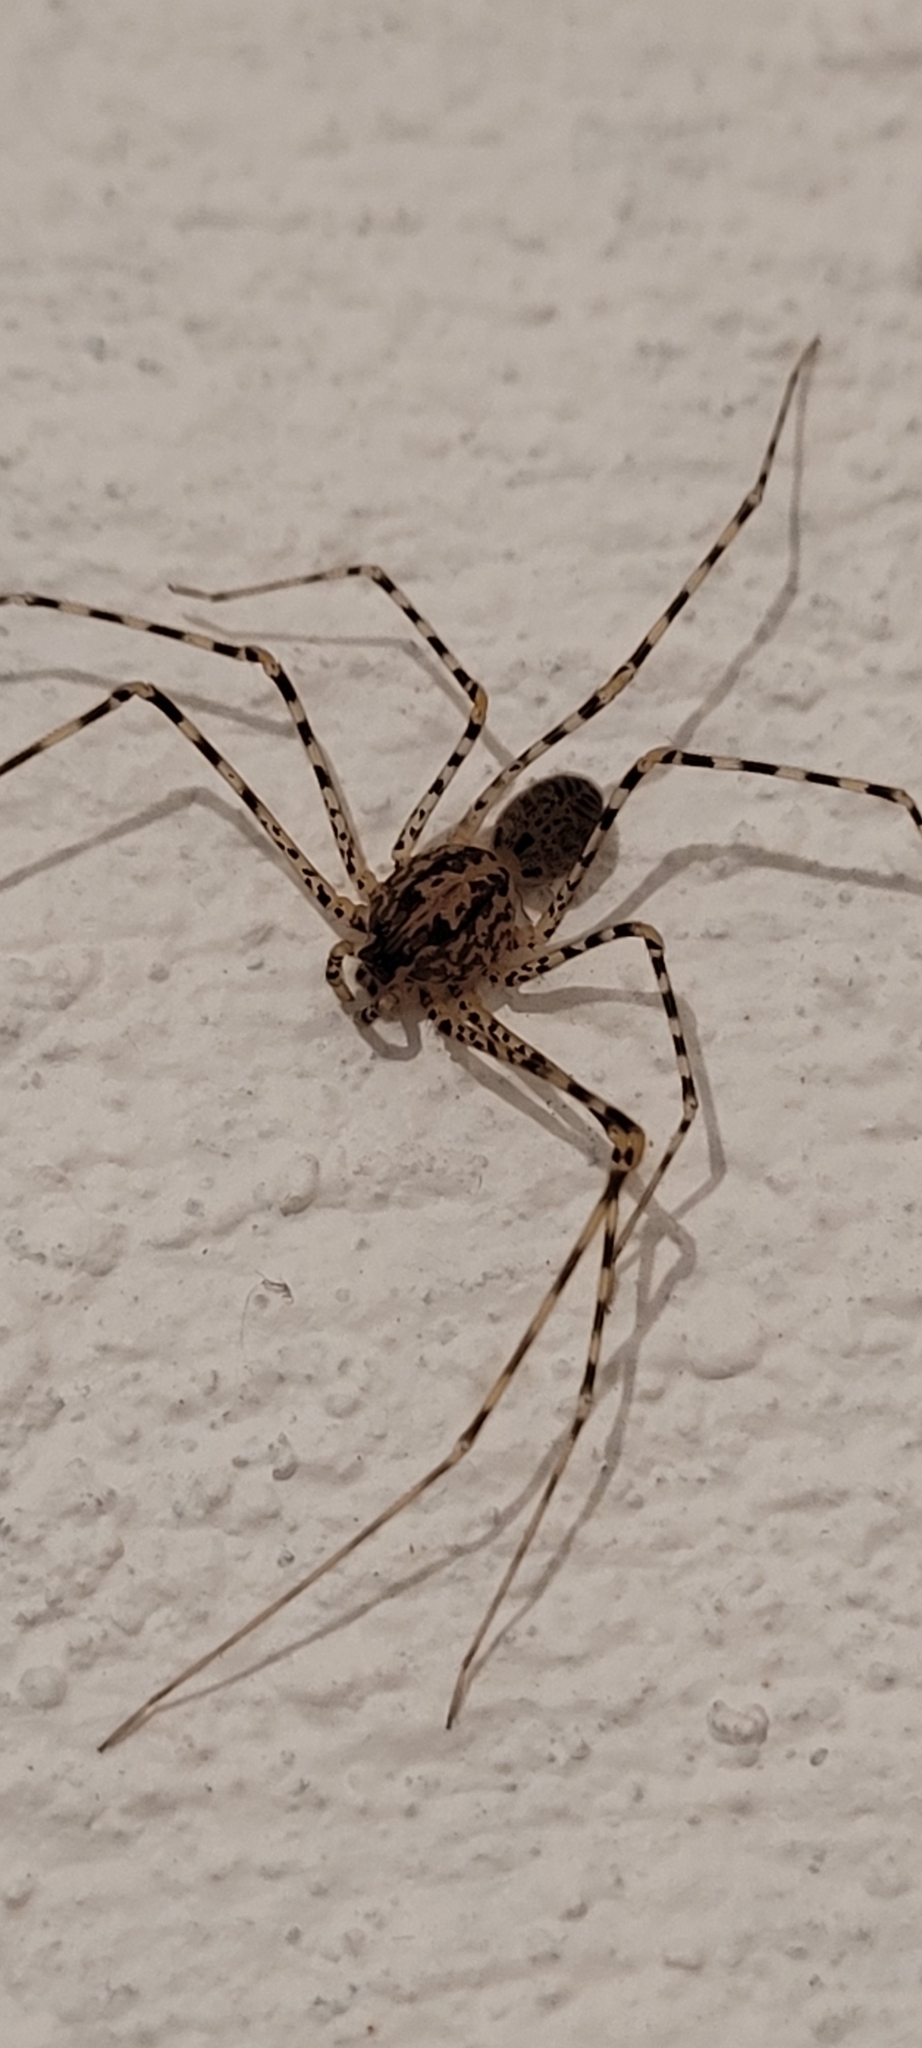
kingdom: Animalia
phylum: Arthropoda
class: Arachnida
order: Araneae
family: Scytodidae
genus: Scytodes
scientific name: Scytodes globula
